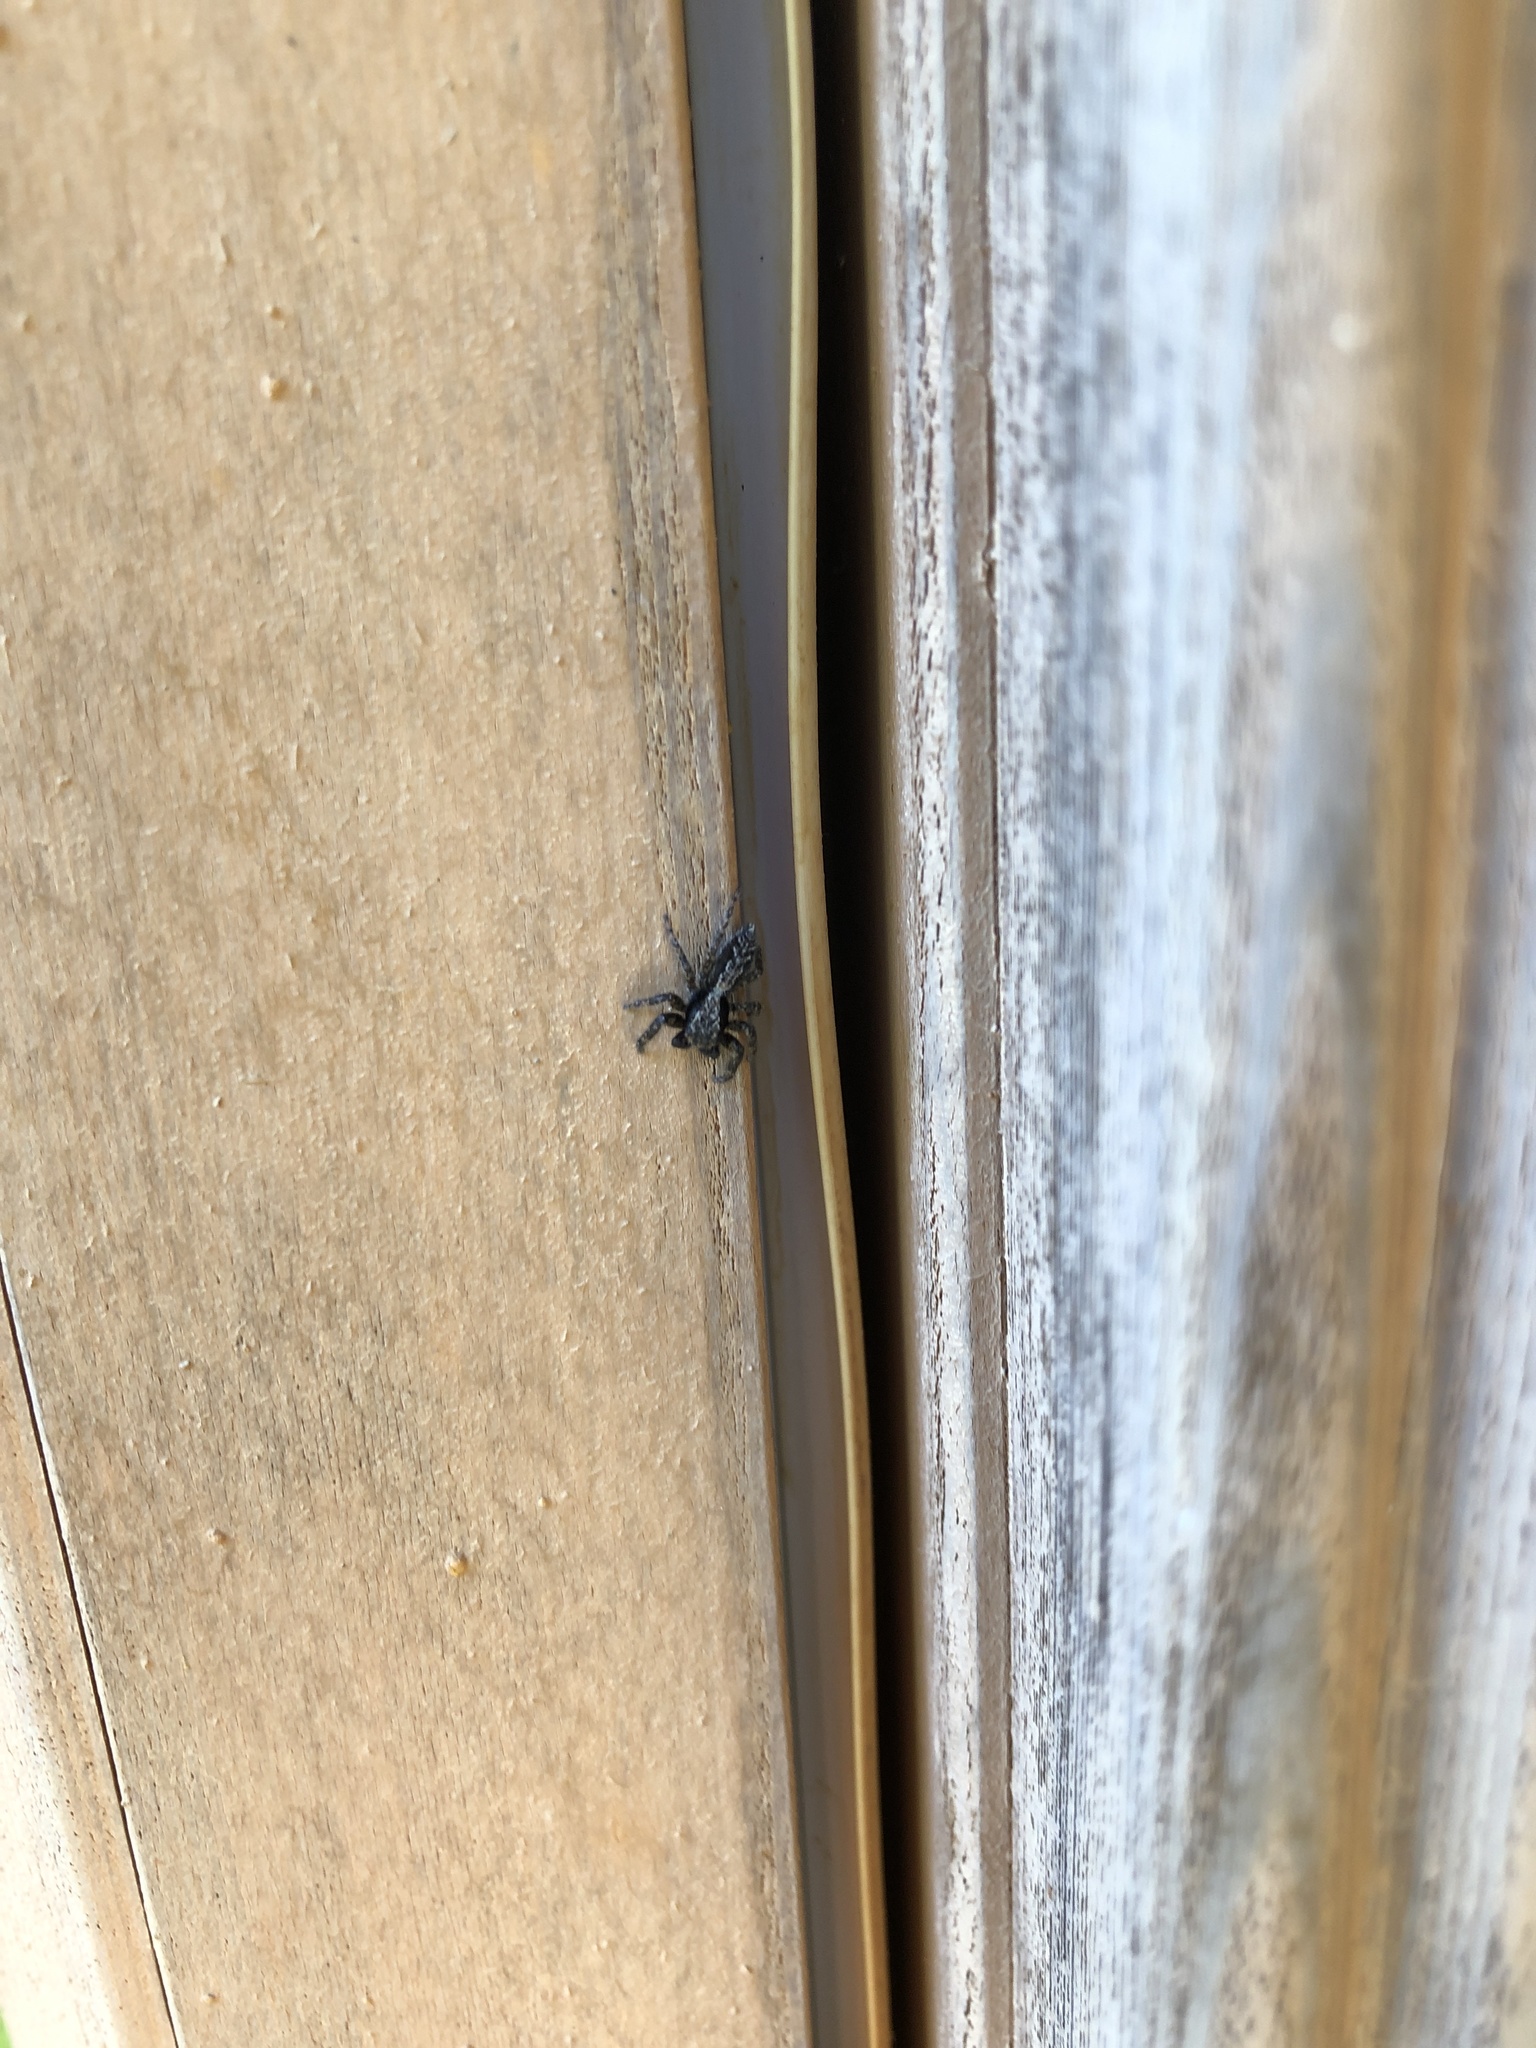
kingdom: Animalia
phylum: Arthropoda
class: Arachnida
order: Araneae
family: Salticidae
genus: Platycryptus
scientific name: Platycryptus californicus
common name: Jumping spiders
